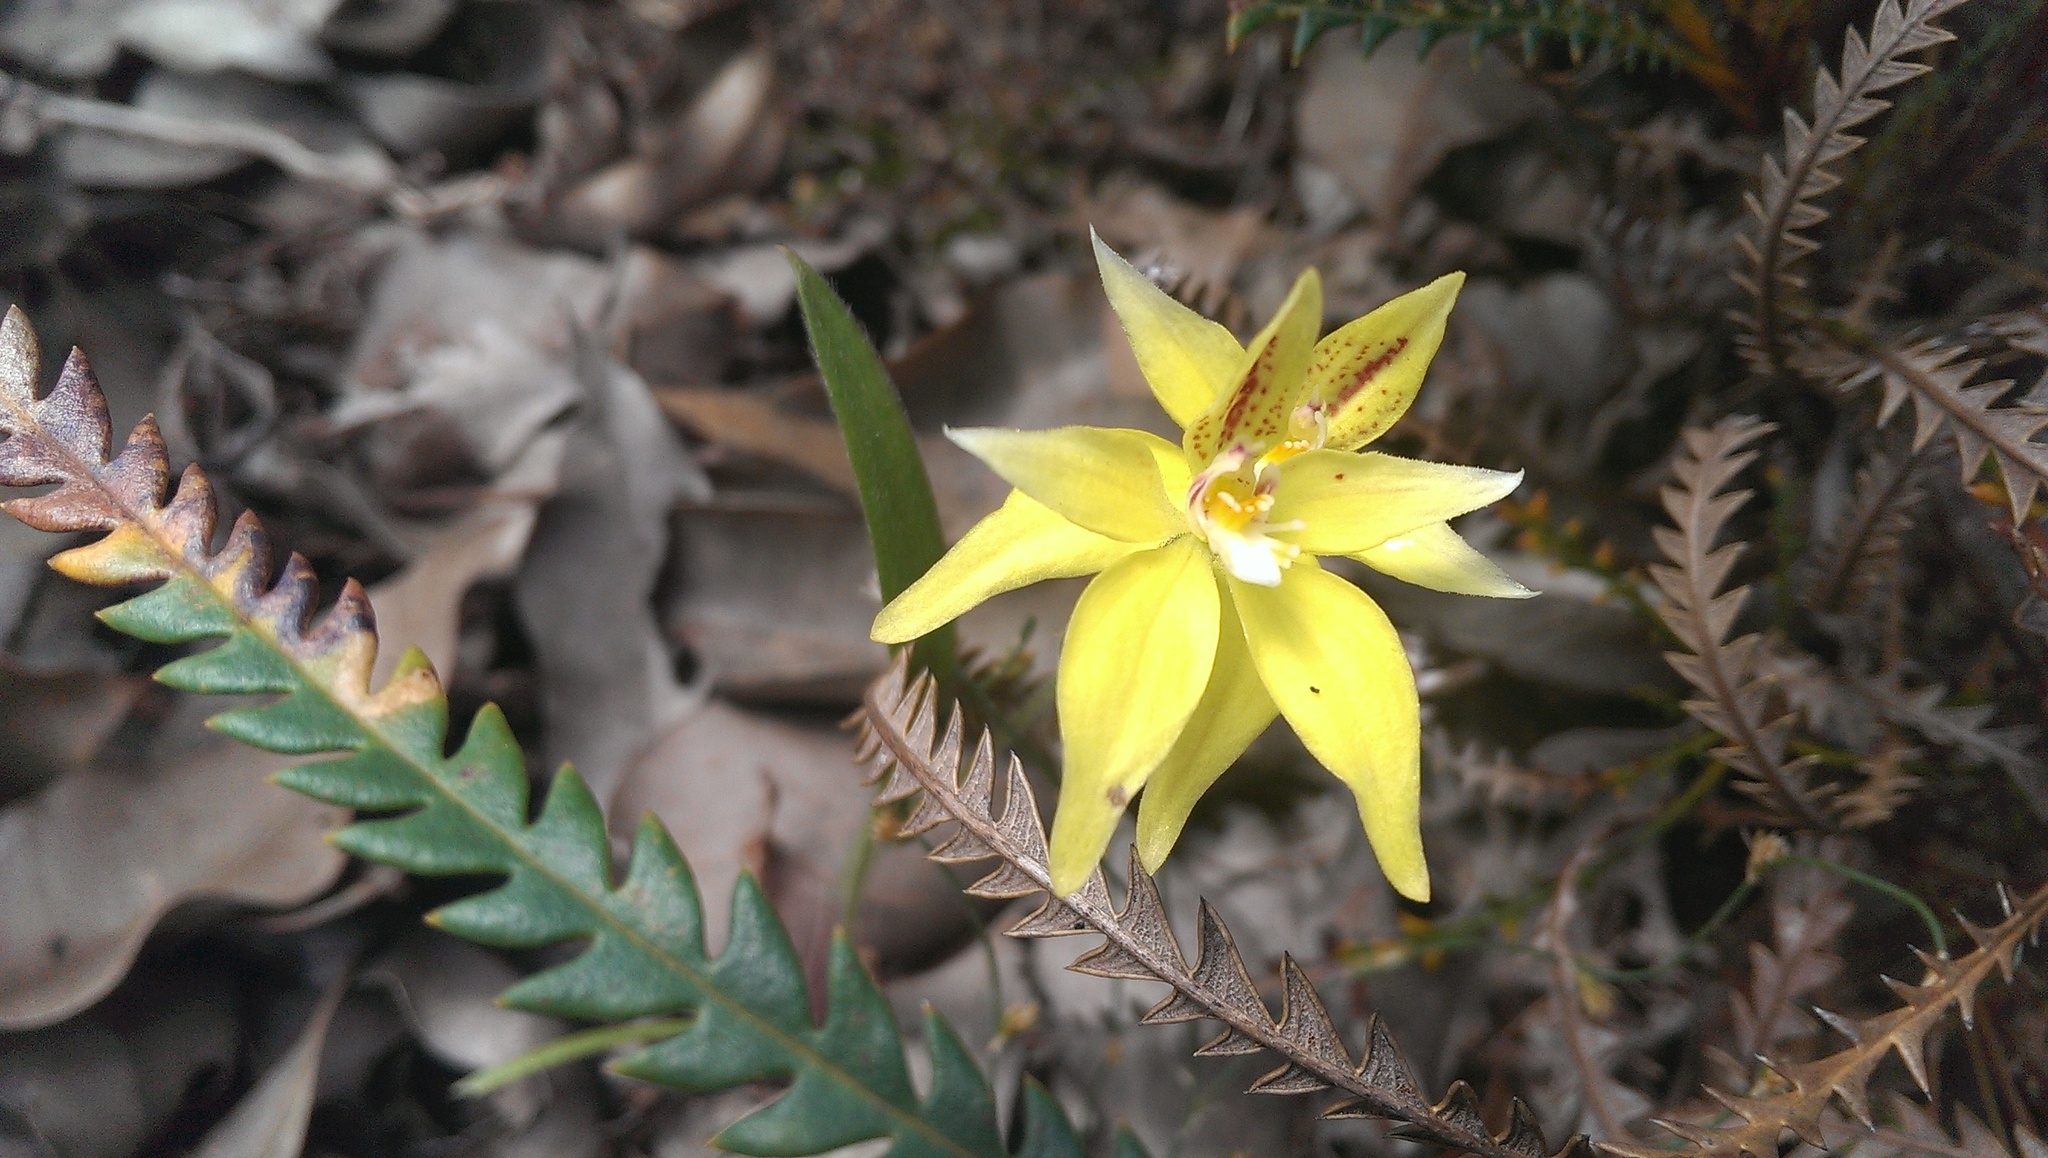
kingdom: Plantae
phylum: Tracheophyta
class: Liliopsida
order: Asparagales
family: Orchidaceae
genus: Caladenia
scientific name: Caladenia flava
